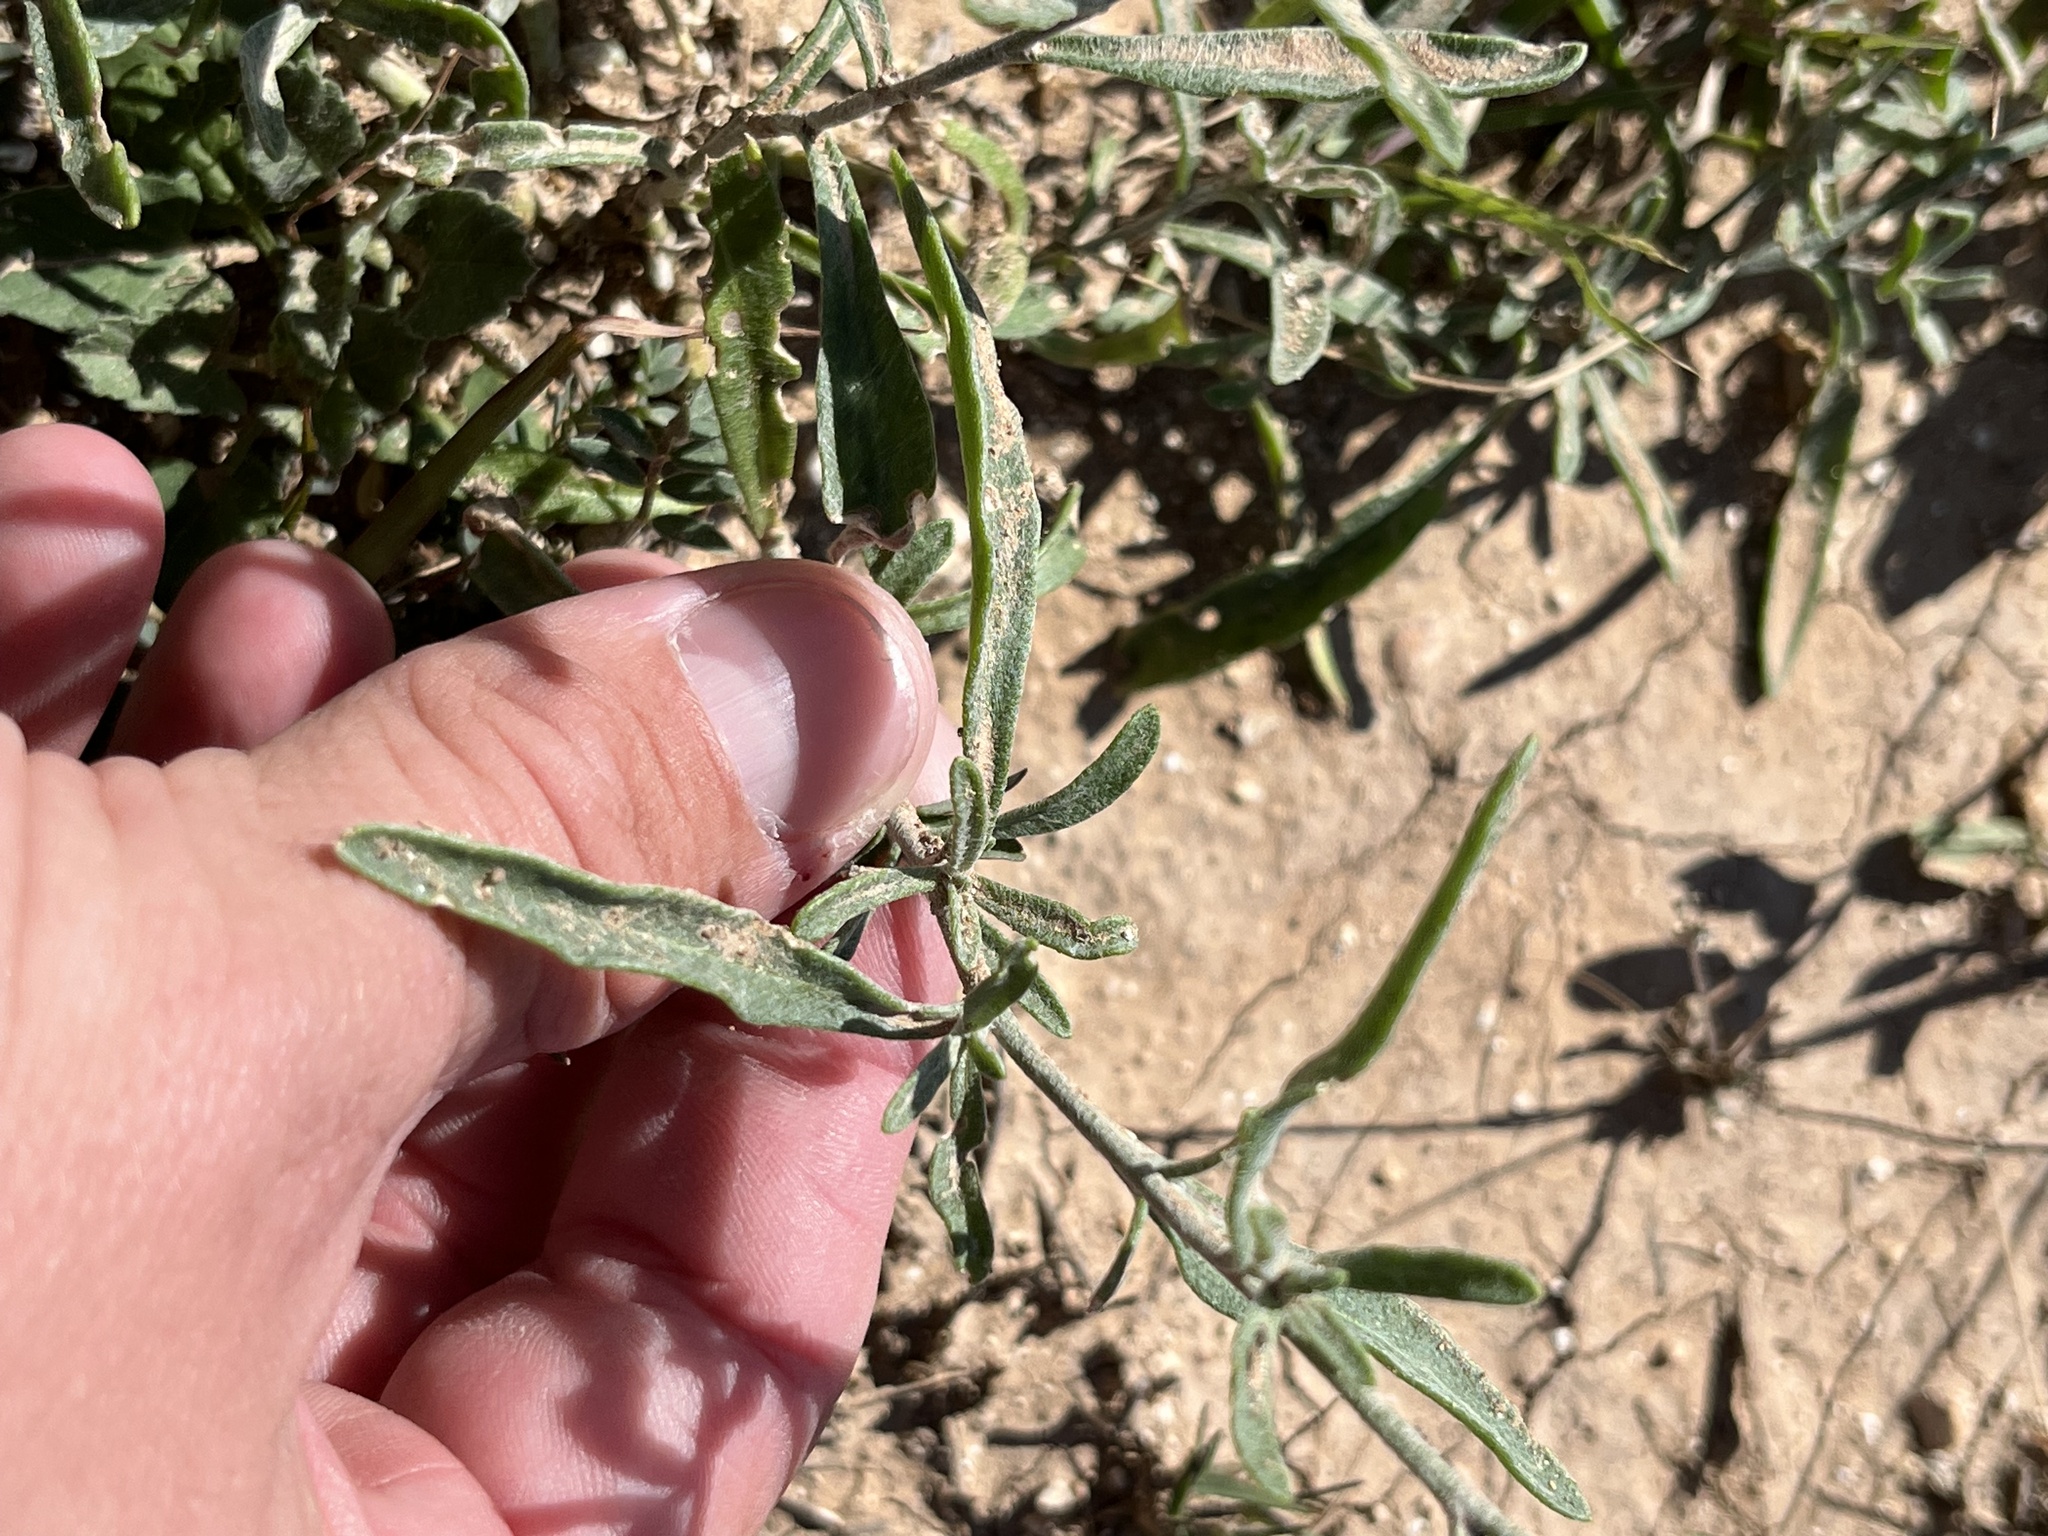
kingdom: Plantae
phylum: Tracheophyta
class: Magnoliopsida
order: Asterales
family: Asteraceae
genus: Psilostrophe
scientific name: Psilostrophe tagetina
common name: Marigold paper-flower
